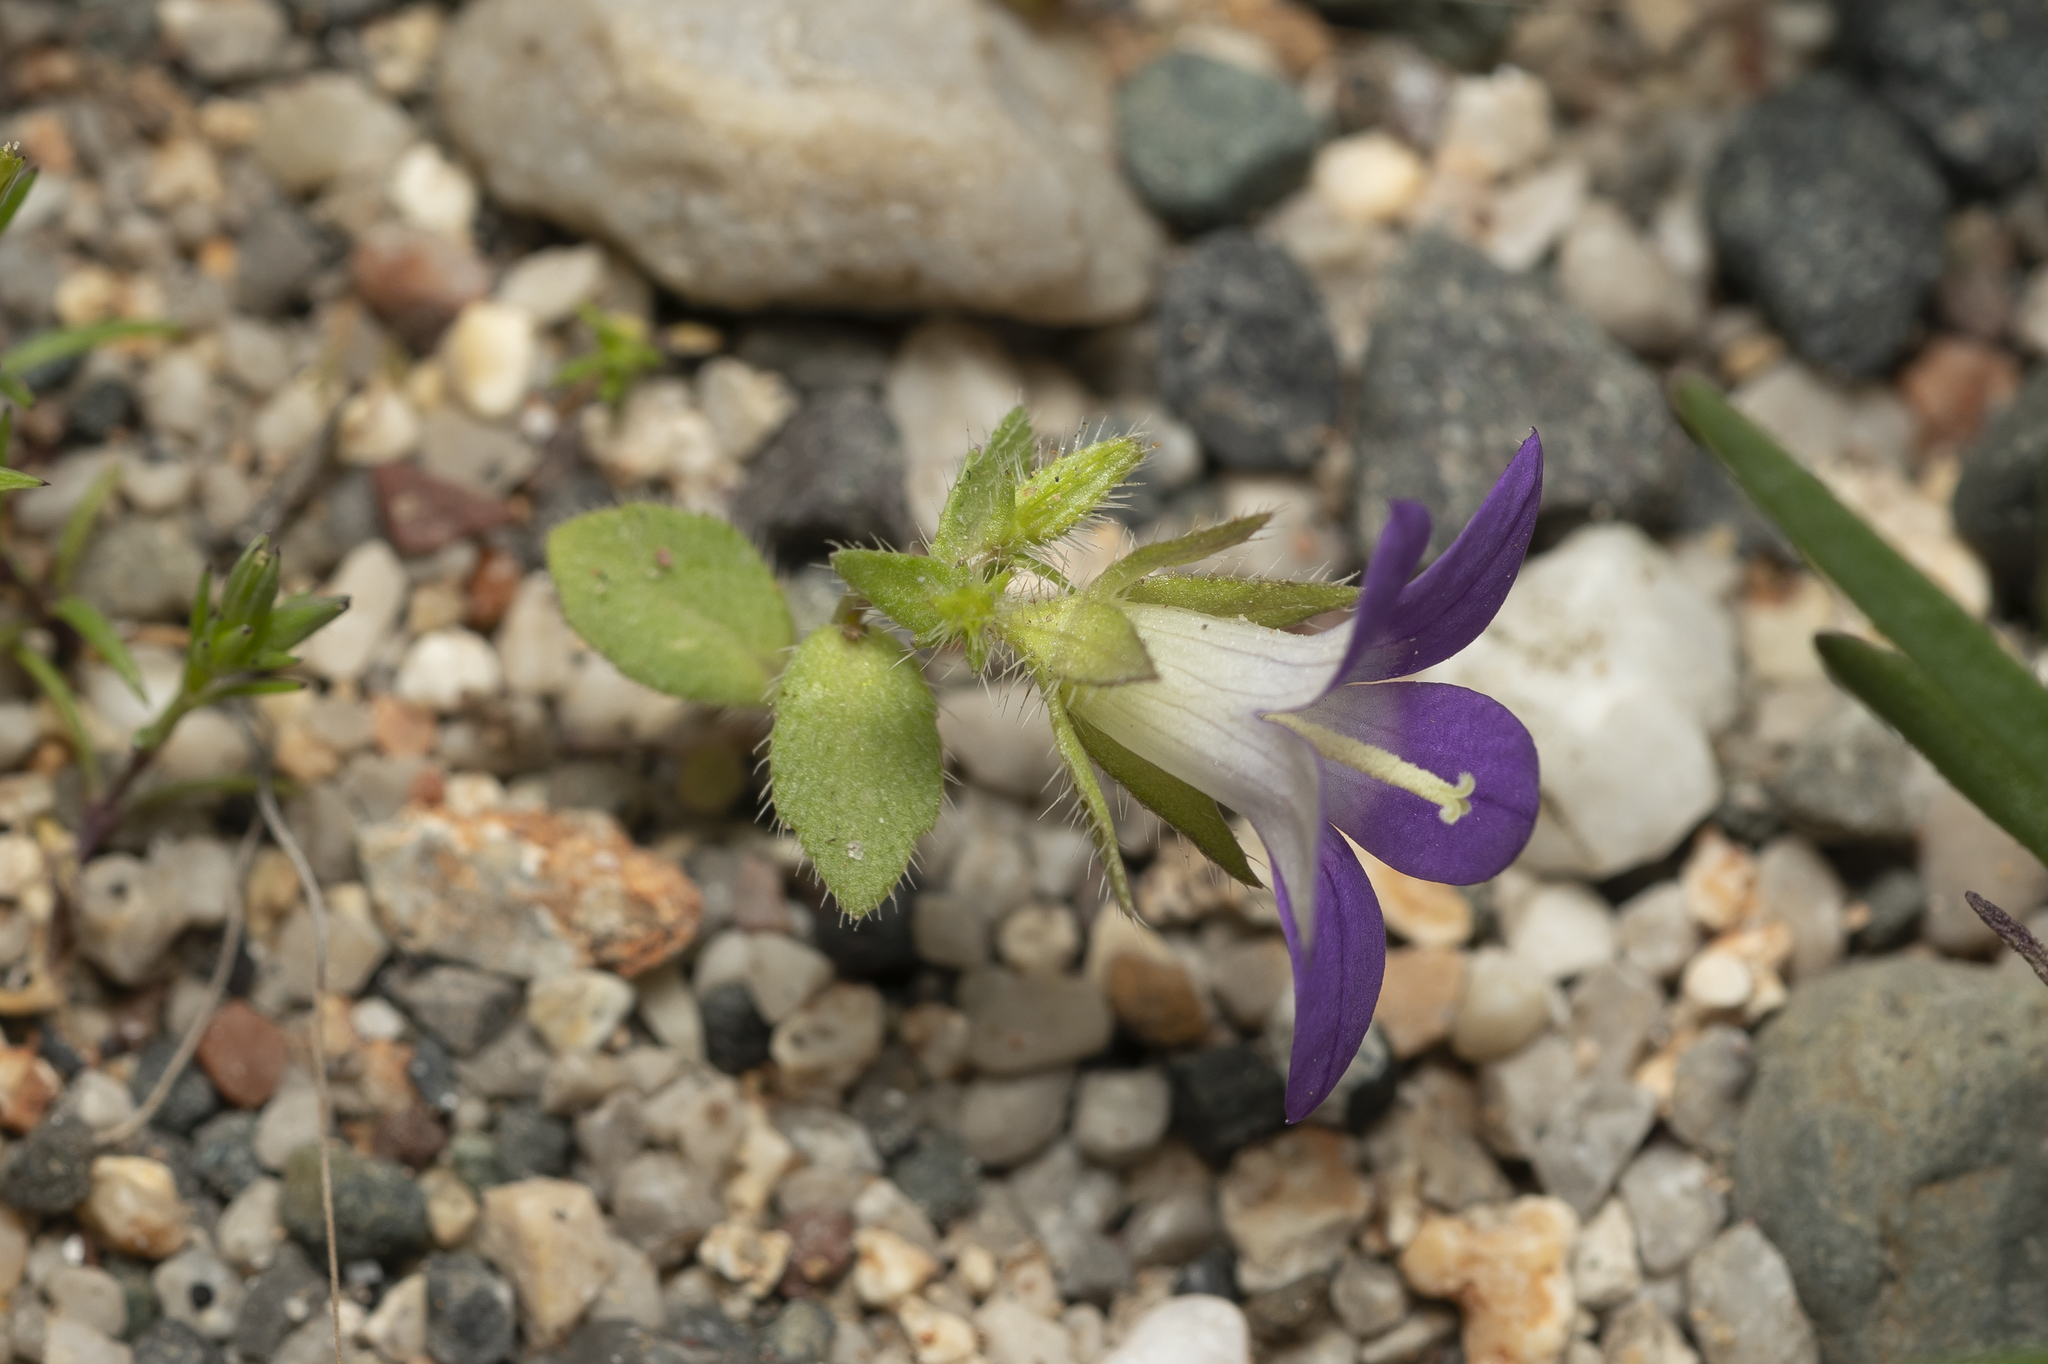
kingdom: Plantae
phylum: Tracheophyta
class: Magnoliopsida
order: Asterales
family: Campanulaceae
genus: Campanula
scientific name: Campanula rhodensis
